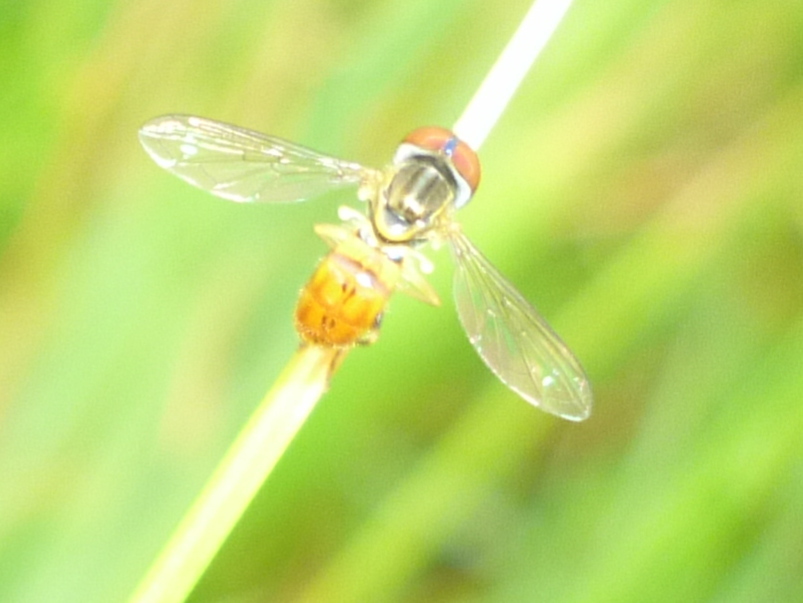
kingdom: Animalia
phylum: Arthropoda
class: Insecta
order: Diptera
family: Syrphidae
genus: Toxomerus
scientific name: Toxomerus boscii
